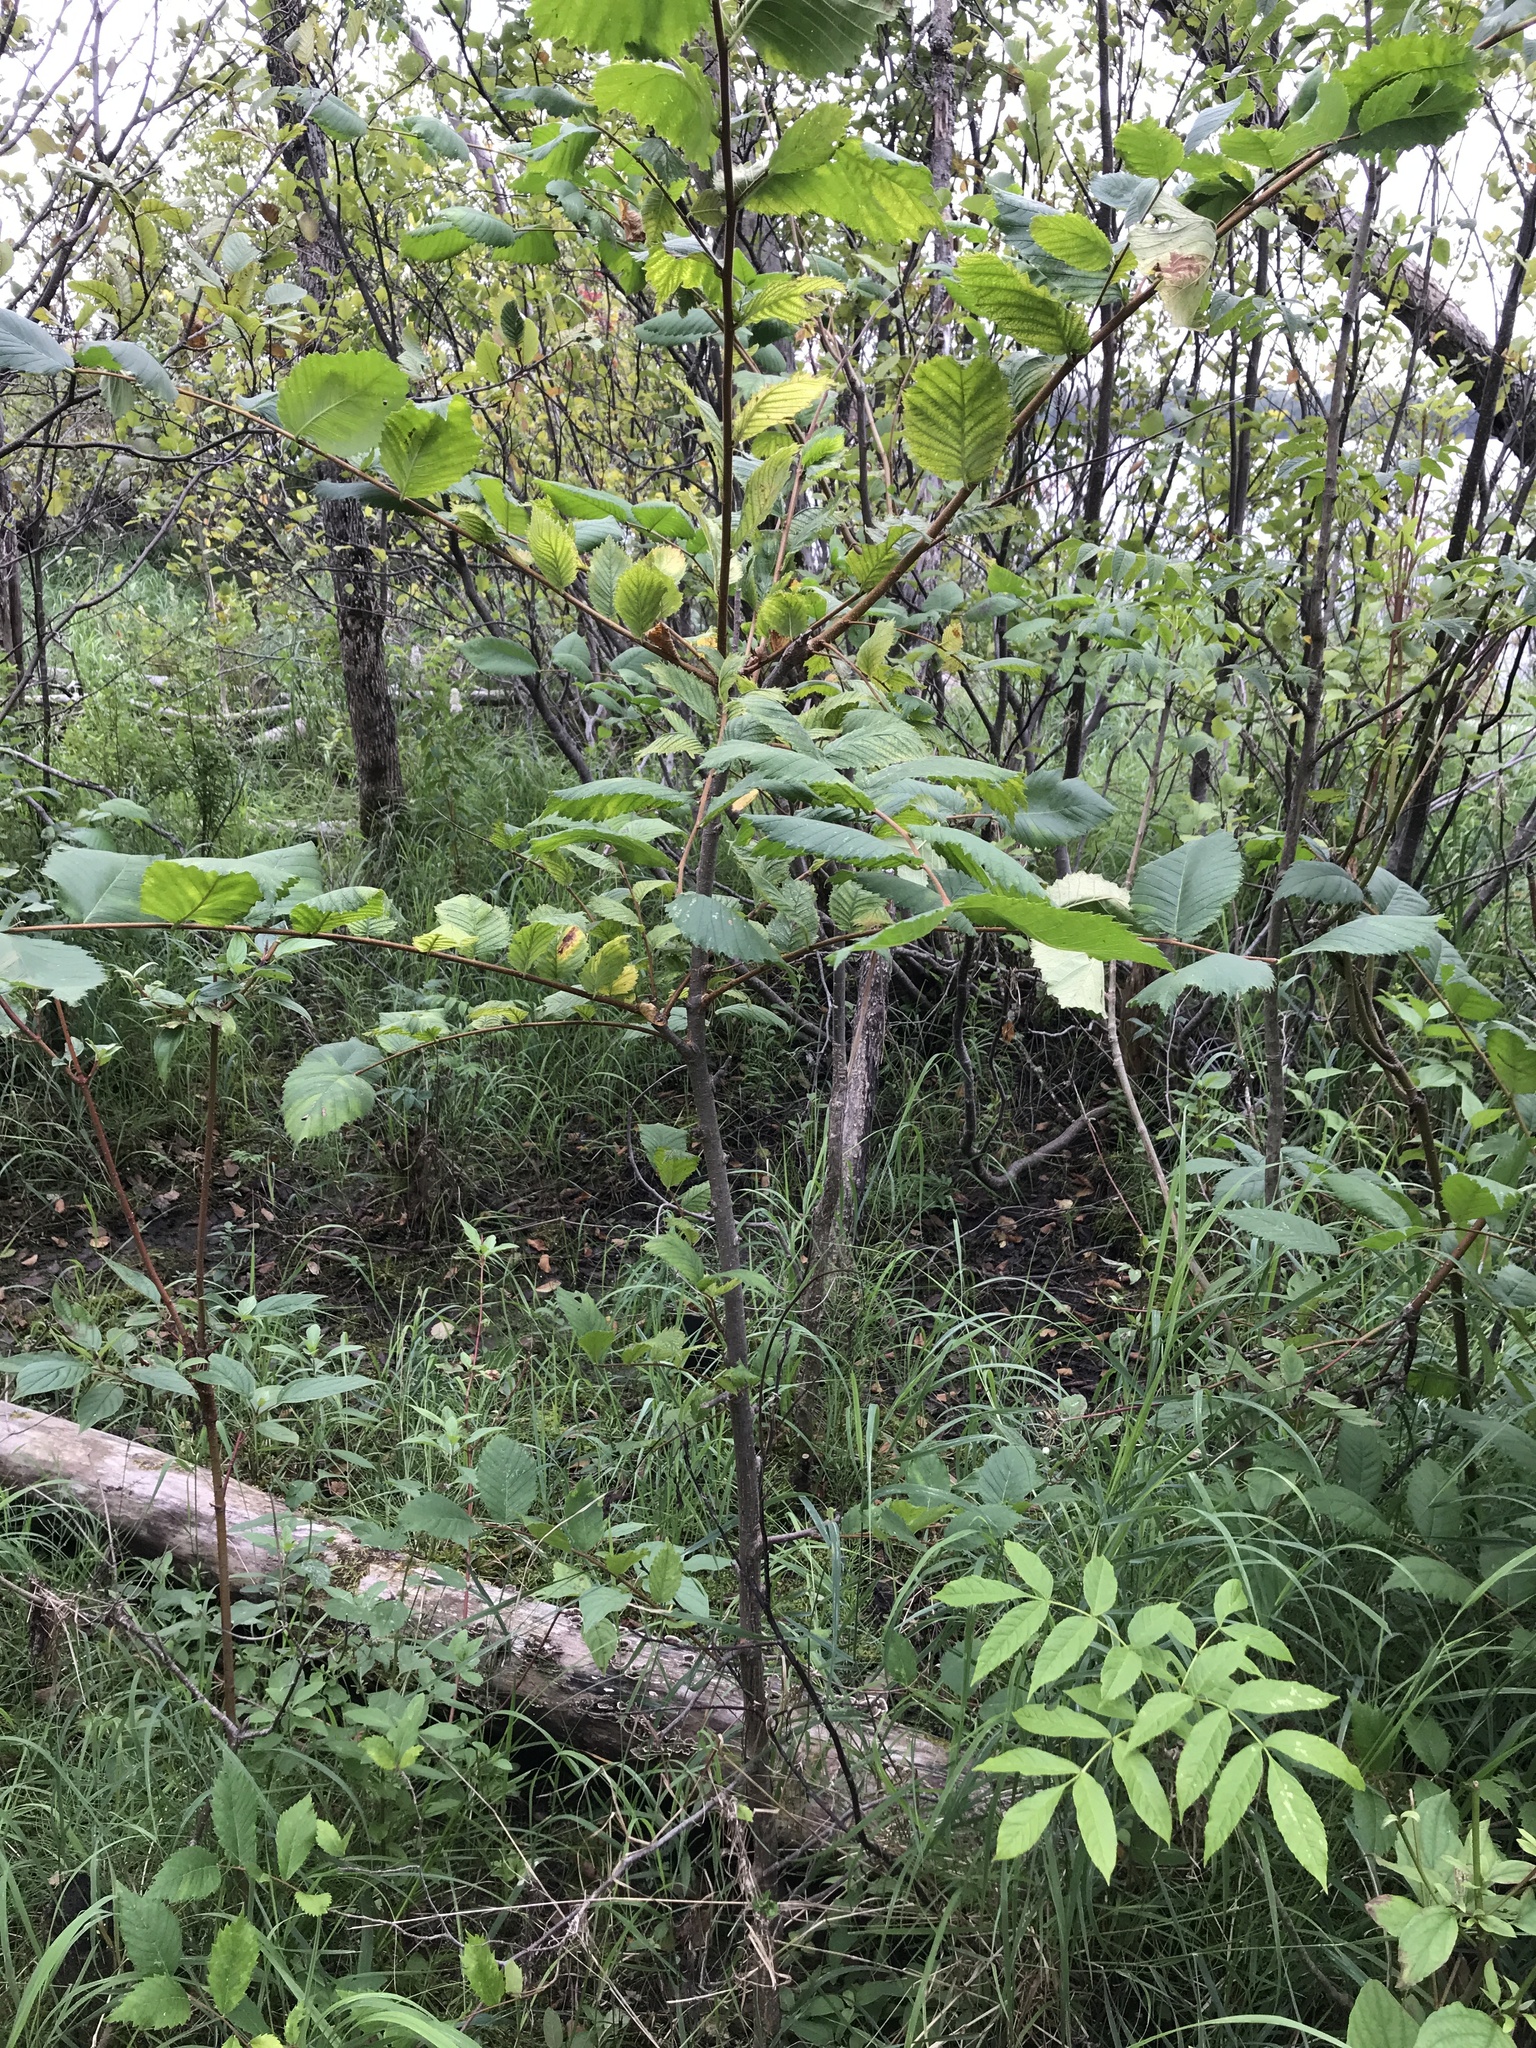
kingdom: Plantae
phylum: Tracheophyta
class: Magnoliopsida
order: Rosales
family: Ulmaceae
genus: Ulmus
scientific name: Ulmus americana
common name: American elm
